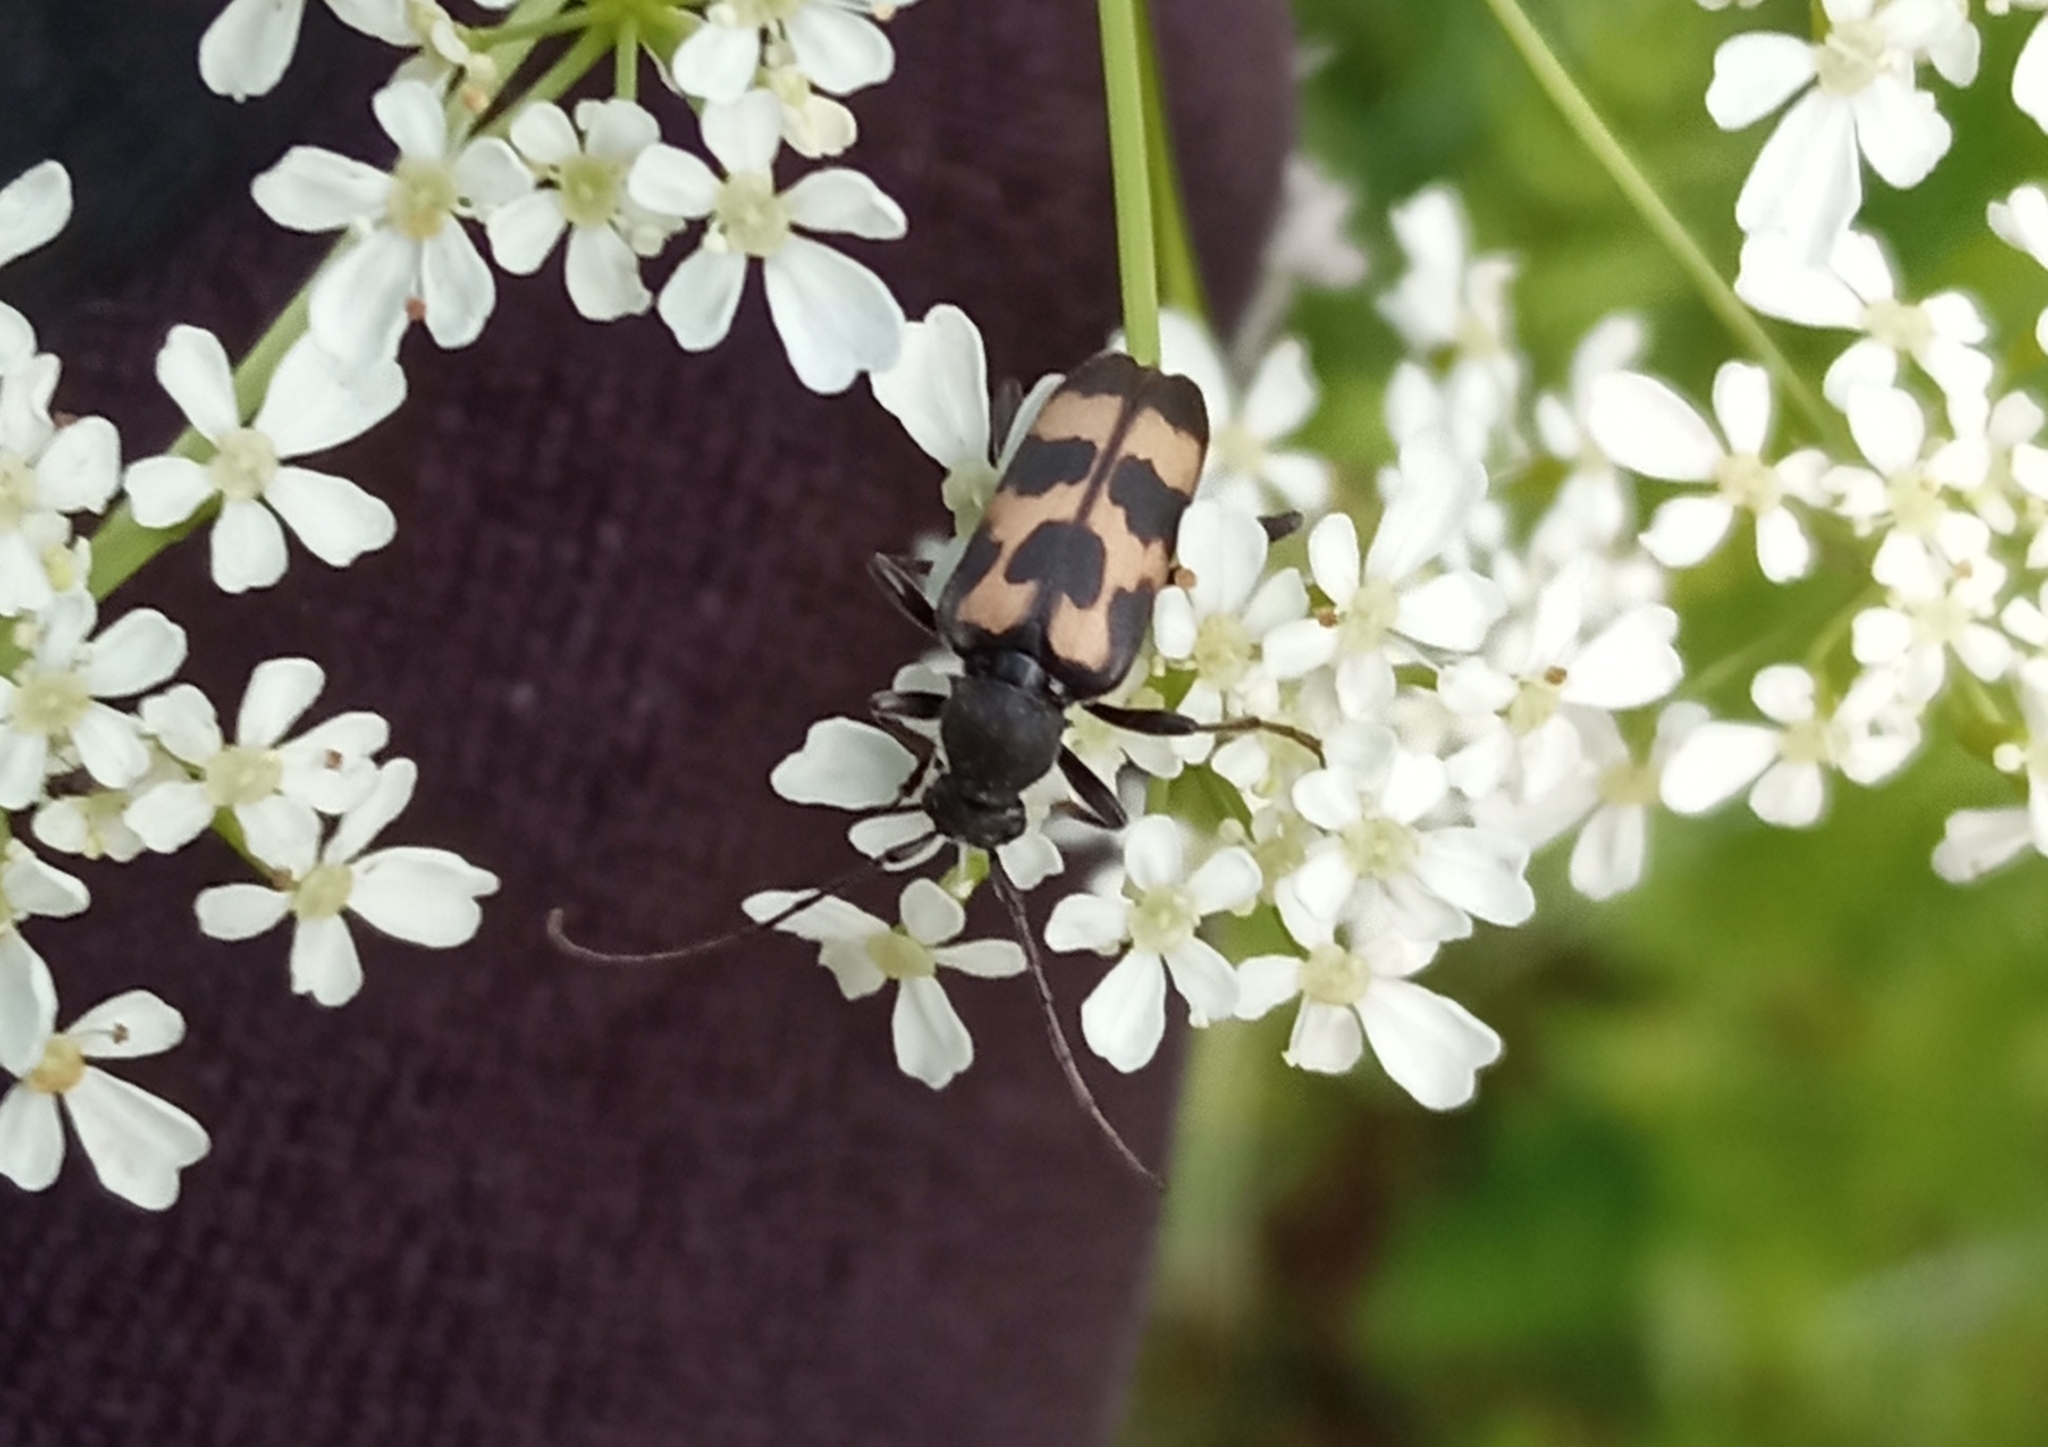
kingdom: Animalia
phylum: Arthropoda
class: Insecta
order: Coleoptera
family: Cerambycidae
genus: Judolia
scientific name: Judolia sexmaculata
